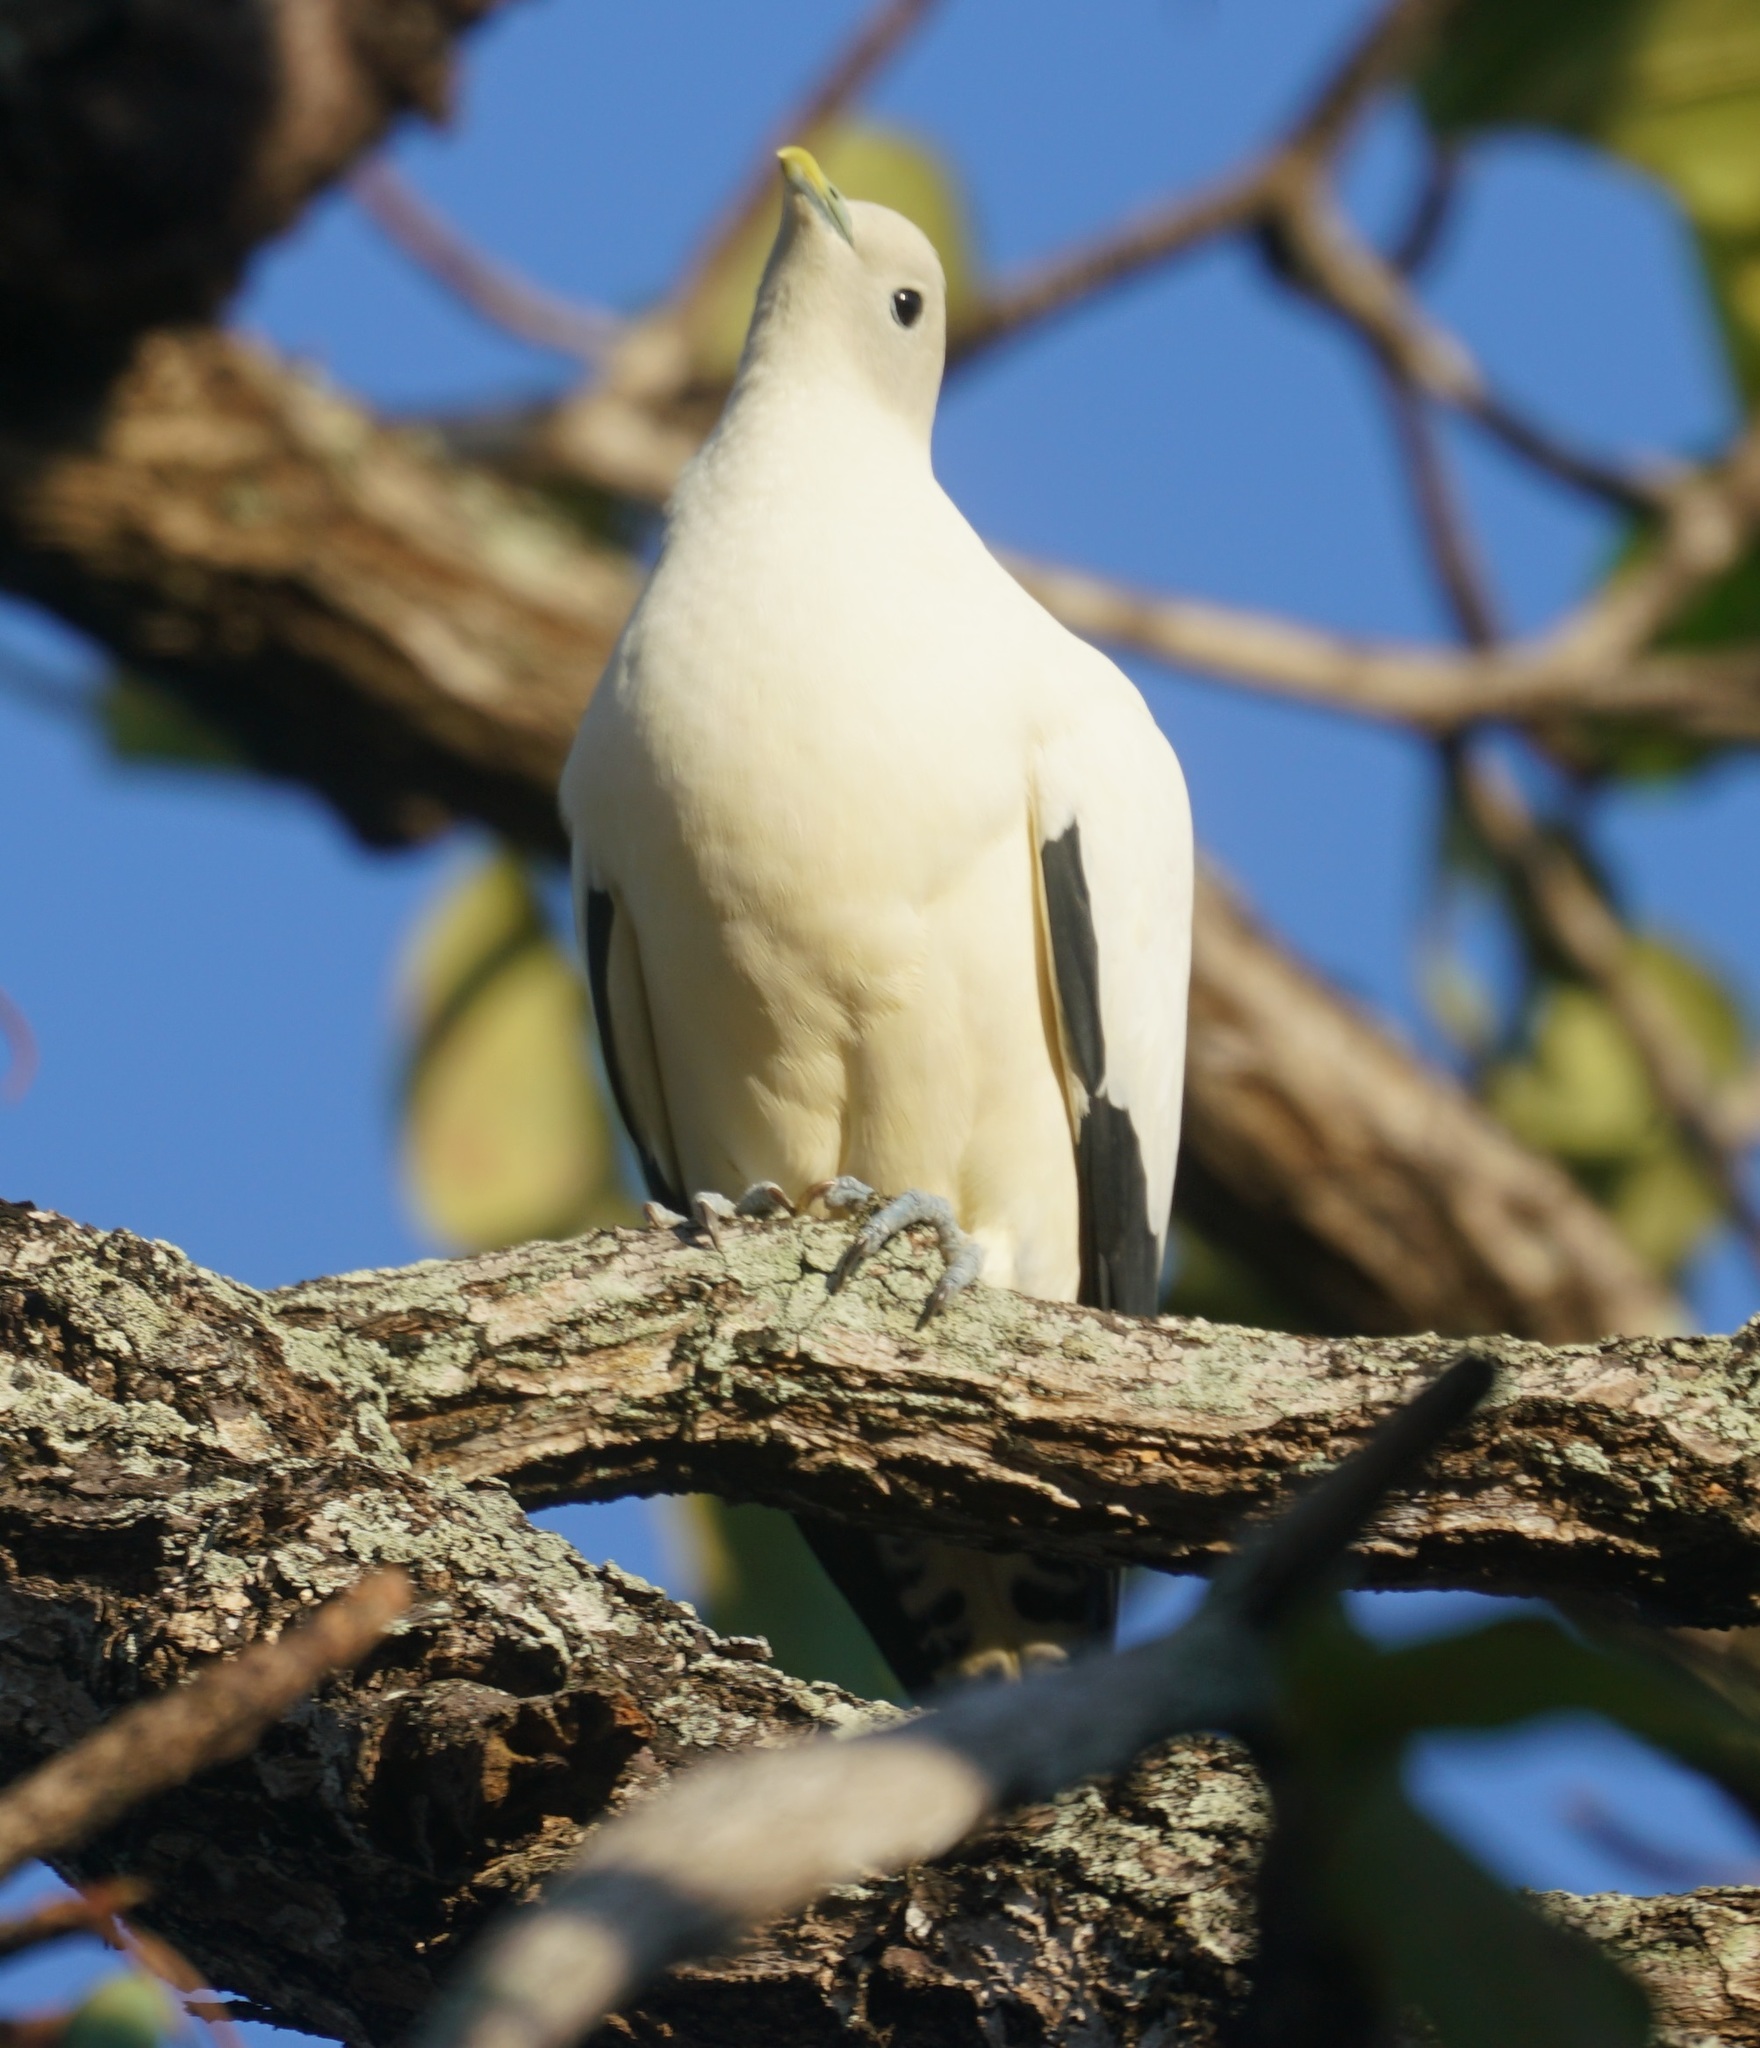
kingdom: Animalia
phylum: Chordata
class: Aves
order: Columbiformes
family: Columbidae
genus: Ducula
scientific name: Ducula spilorrhoa
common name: Torresian imperial pigeon
